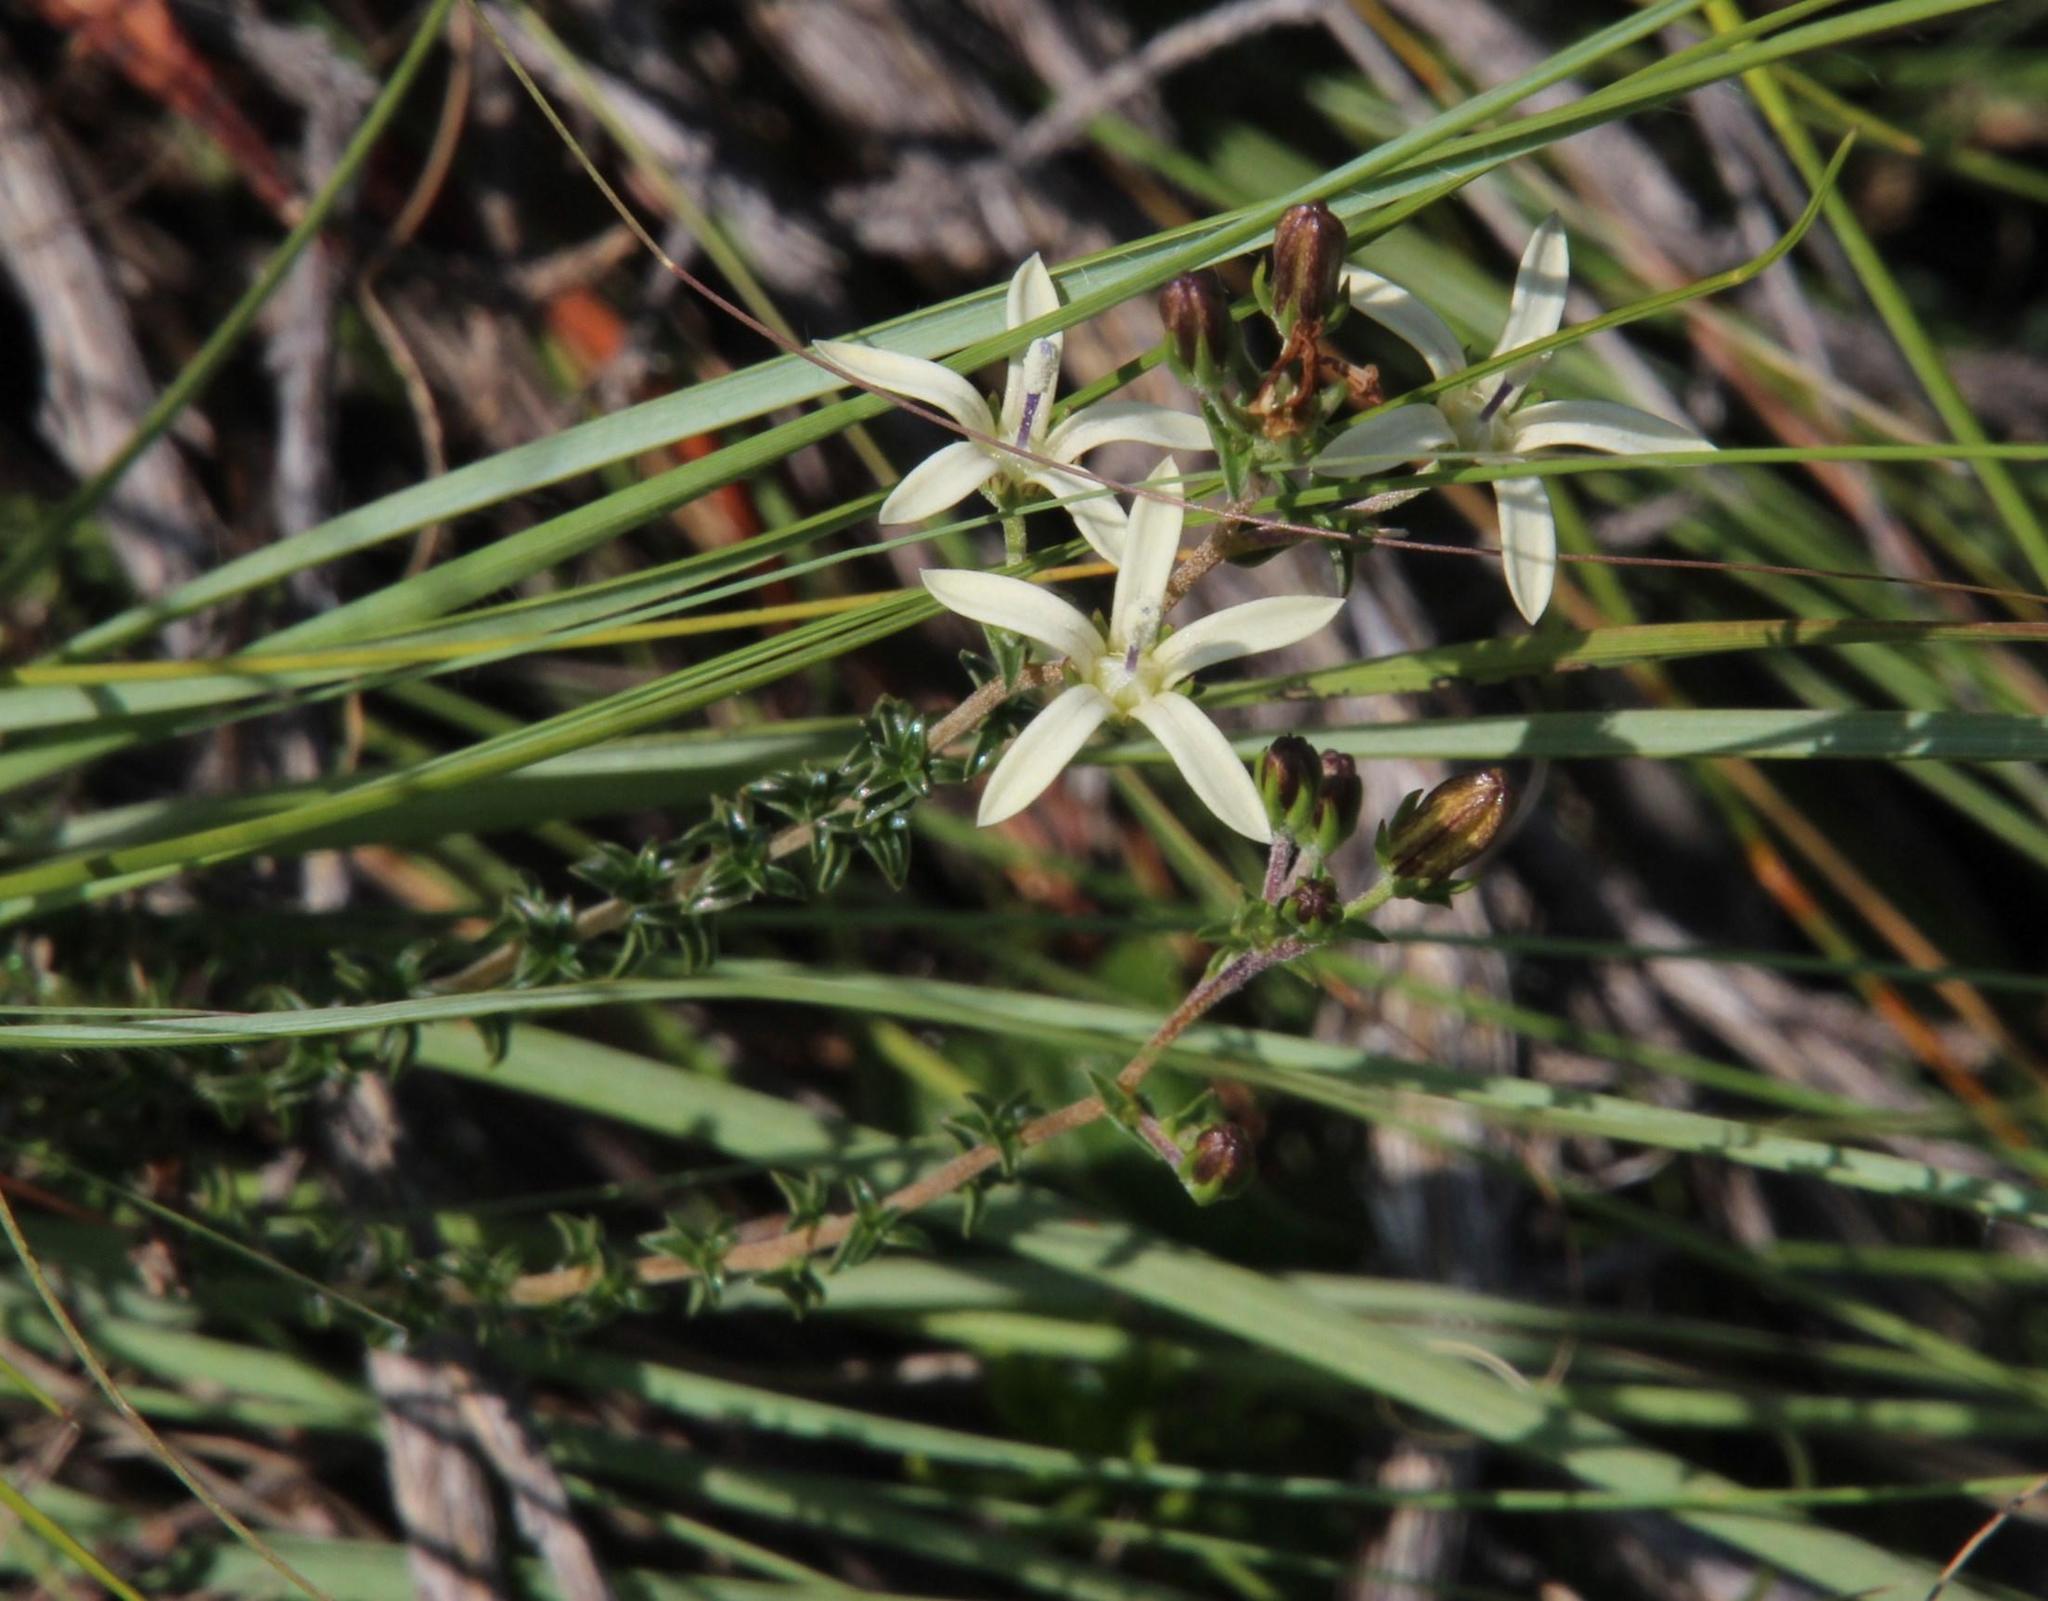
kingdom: Plantae
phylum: Tracheophyta
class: Magnoliopsida
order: Asterales
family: Campanulaceae
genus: Wahlenbergia
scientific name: Wahlenbergia nodosa
